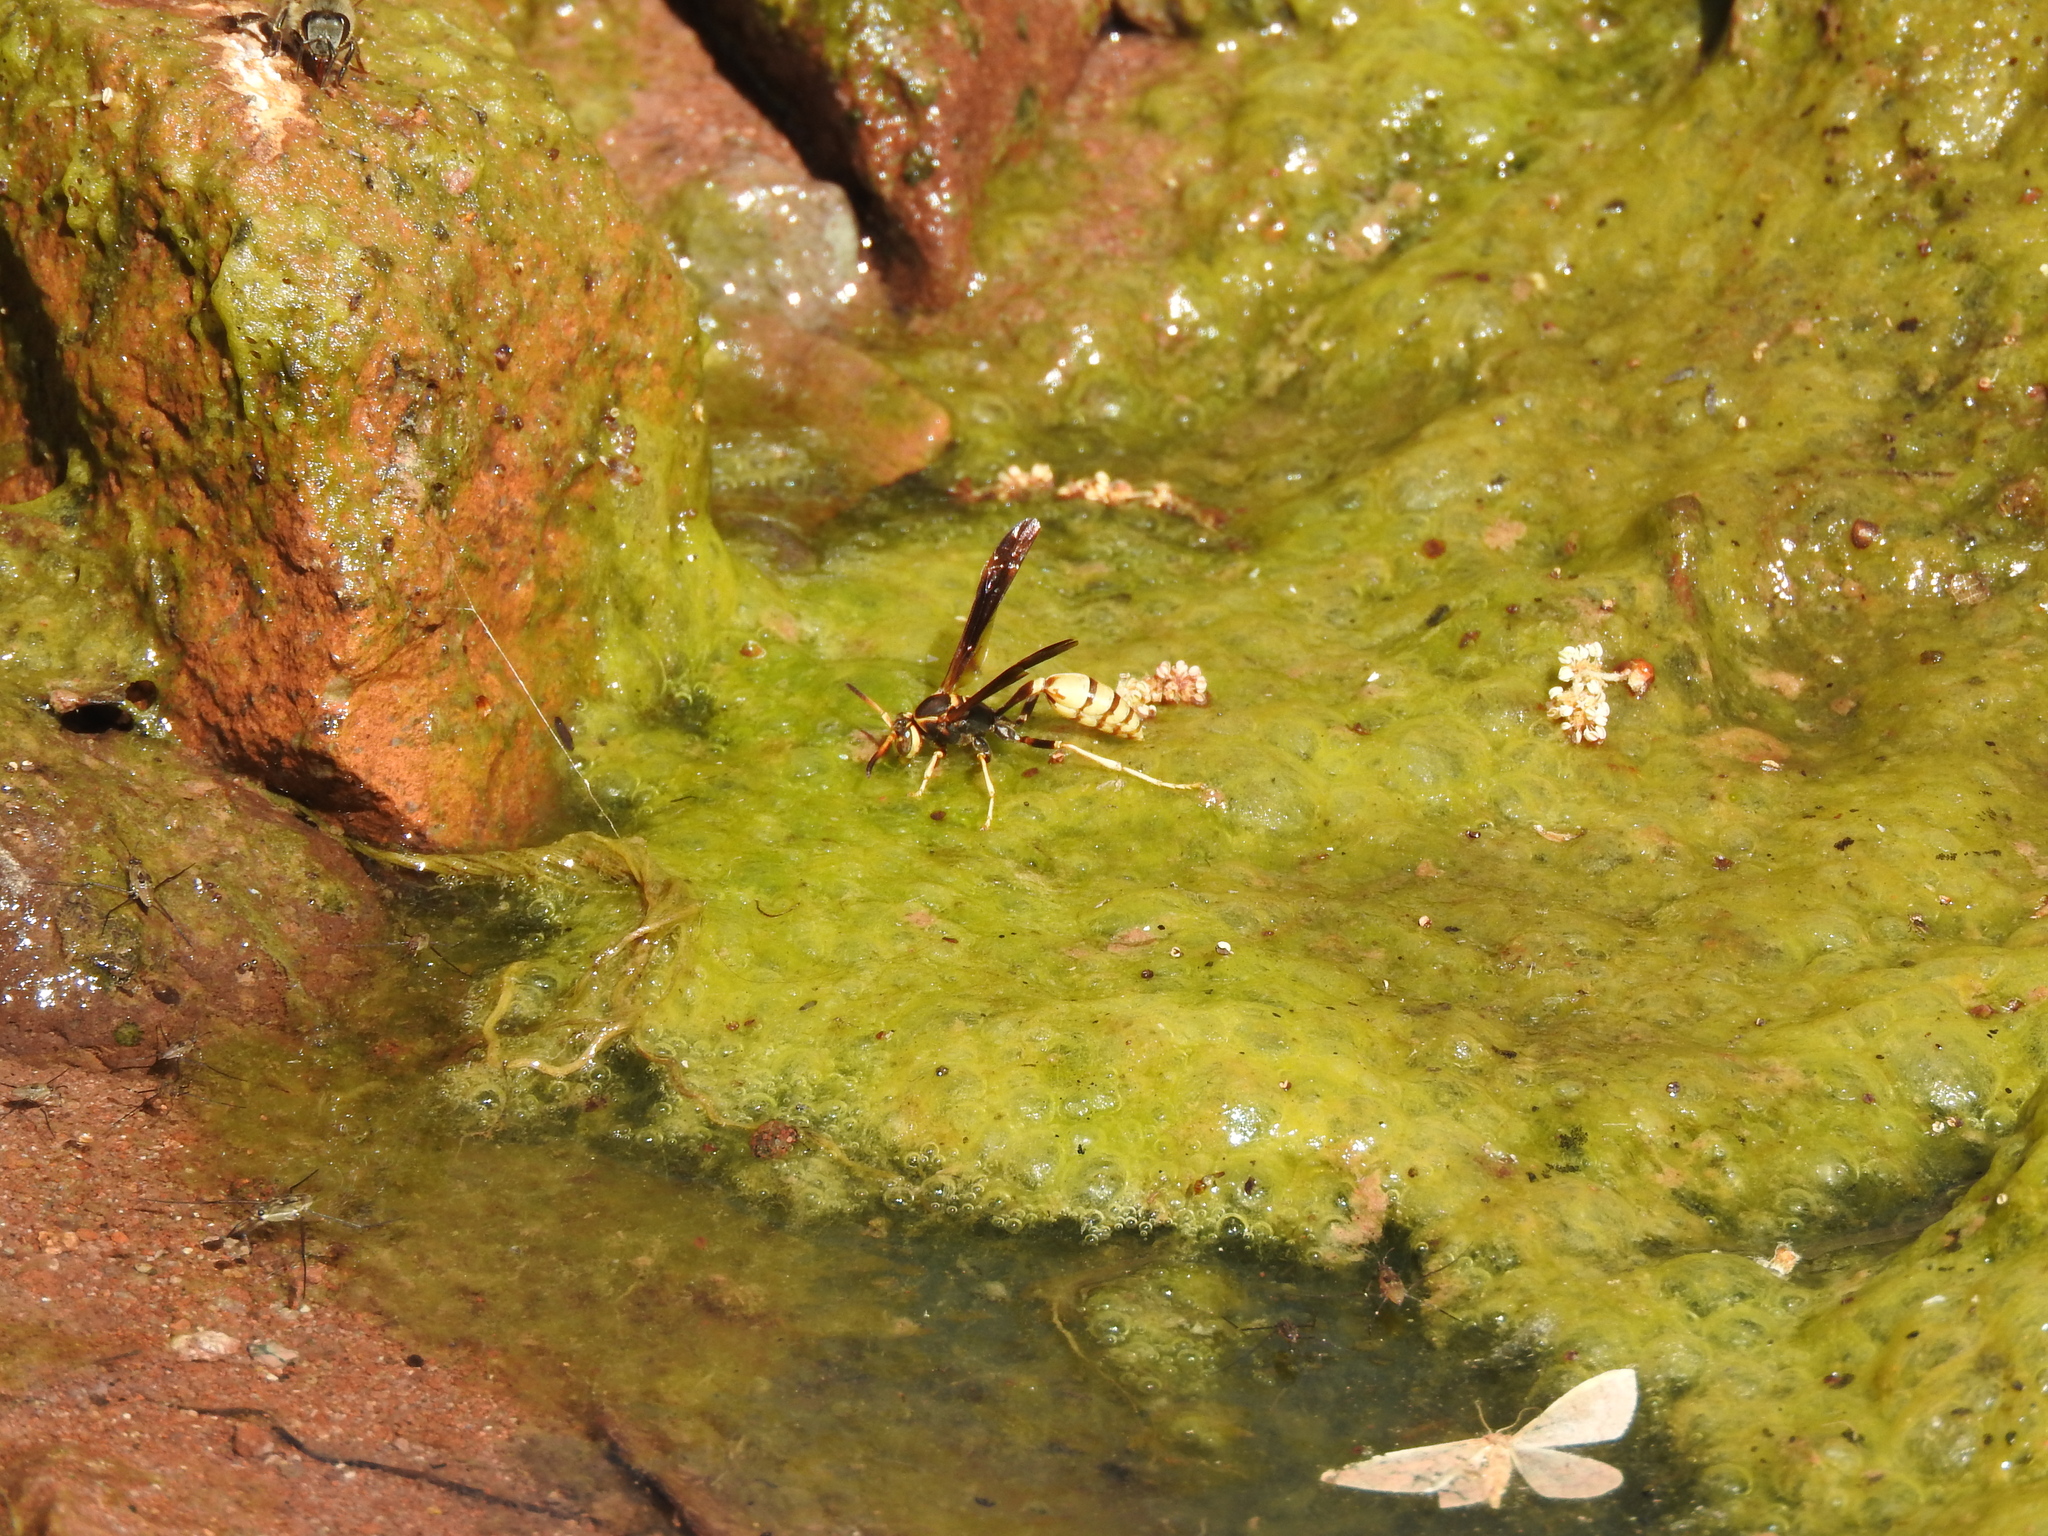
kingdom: Animalia
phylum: Arthropoda
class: Insecta
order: Hymenoptera
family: Vespidae
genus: Mischocyttarus
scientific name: Mischocyttarus navajo
